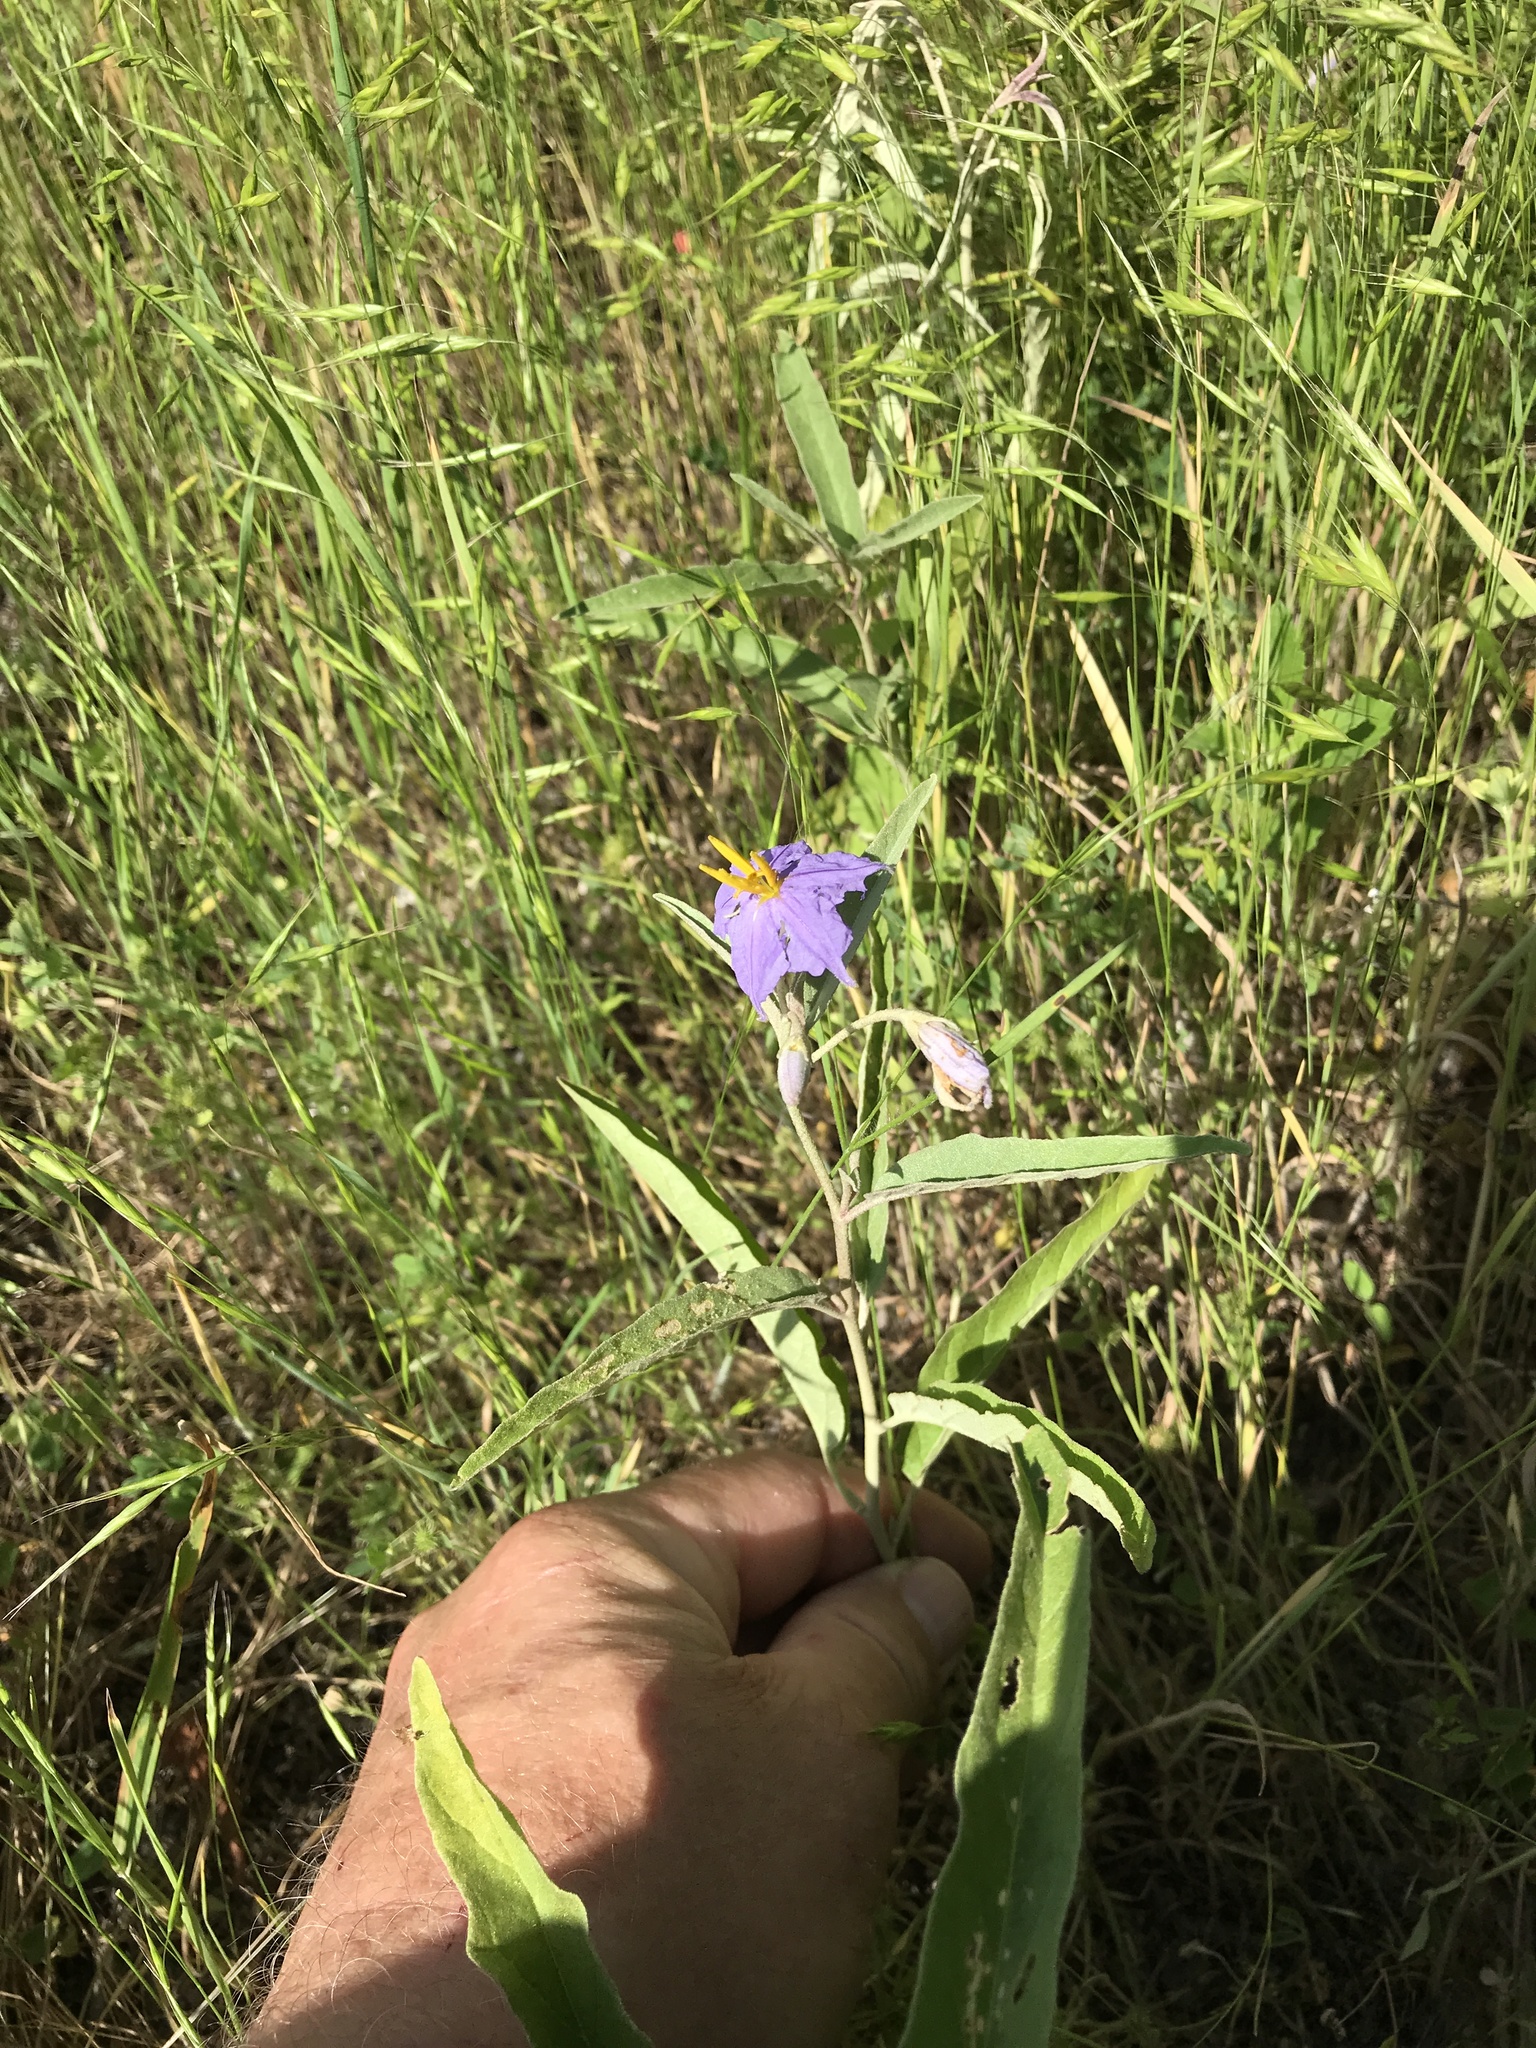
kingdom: Plantae
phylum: Tracheophyta
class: Magnoliopsida
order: Solanales
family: Solanaceae
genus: Solanum
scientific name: Solanum elaeagnifolium
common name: Silverleaf nightshade
